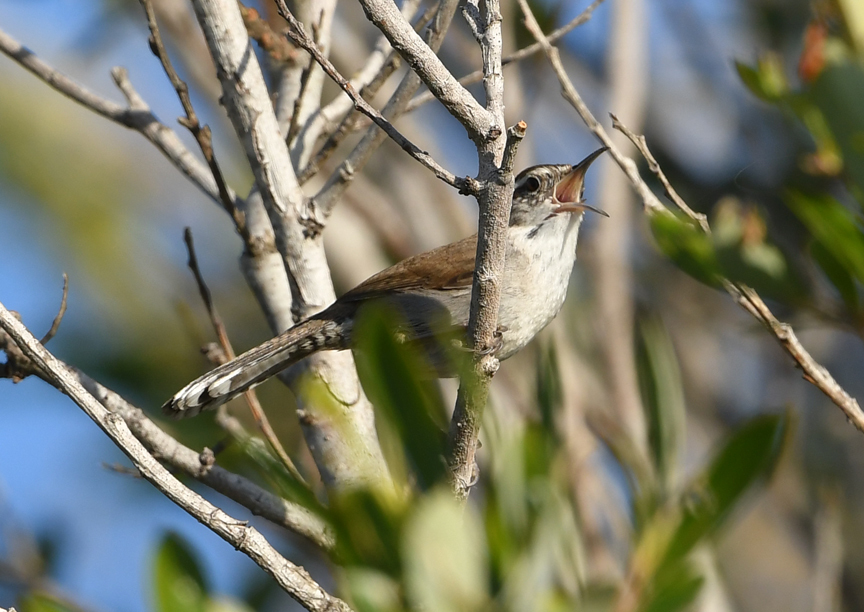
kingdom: Animalia
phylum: Chordata
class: Aves
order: Passeriformes
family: Troglodytidae
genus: Thryomanes
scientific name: Thryomanes bewickii
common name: Bewick's wren
